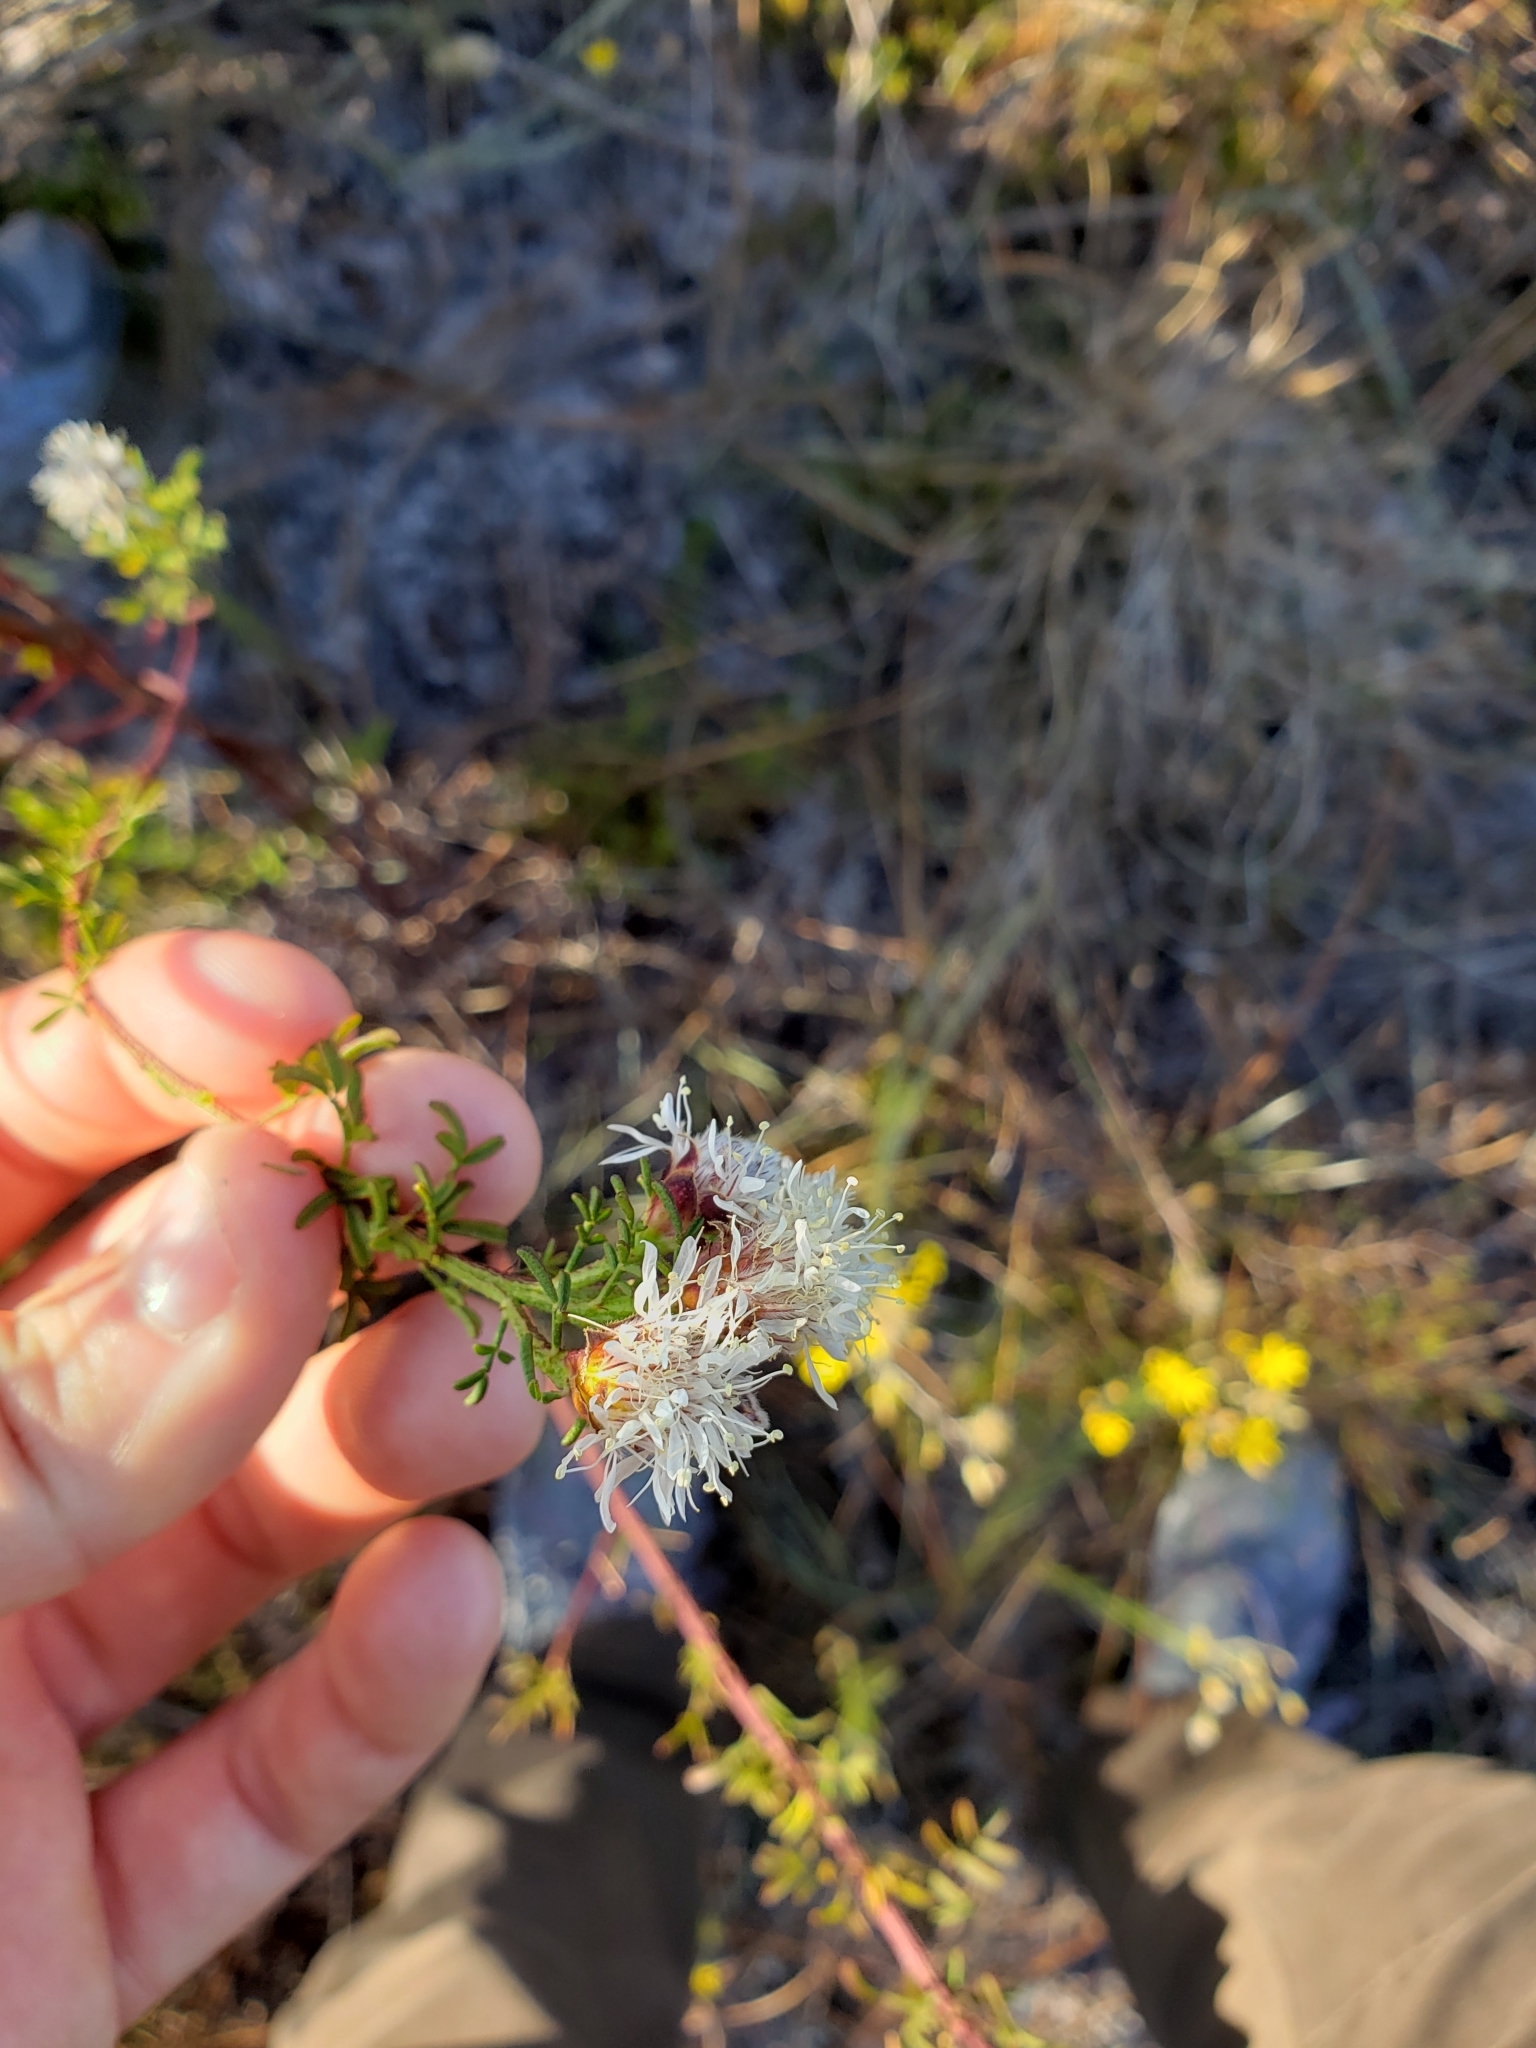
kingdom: Plantae
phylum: Tracheophyta
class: Magnoliopsida
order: Fabales
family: Fabaceae
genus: Dalea
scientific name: Dalea pinnata
